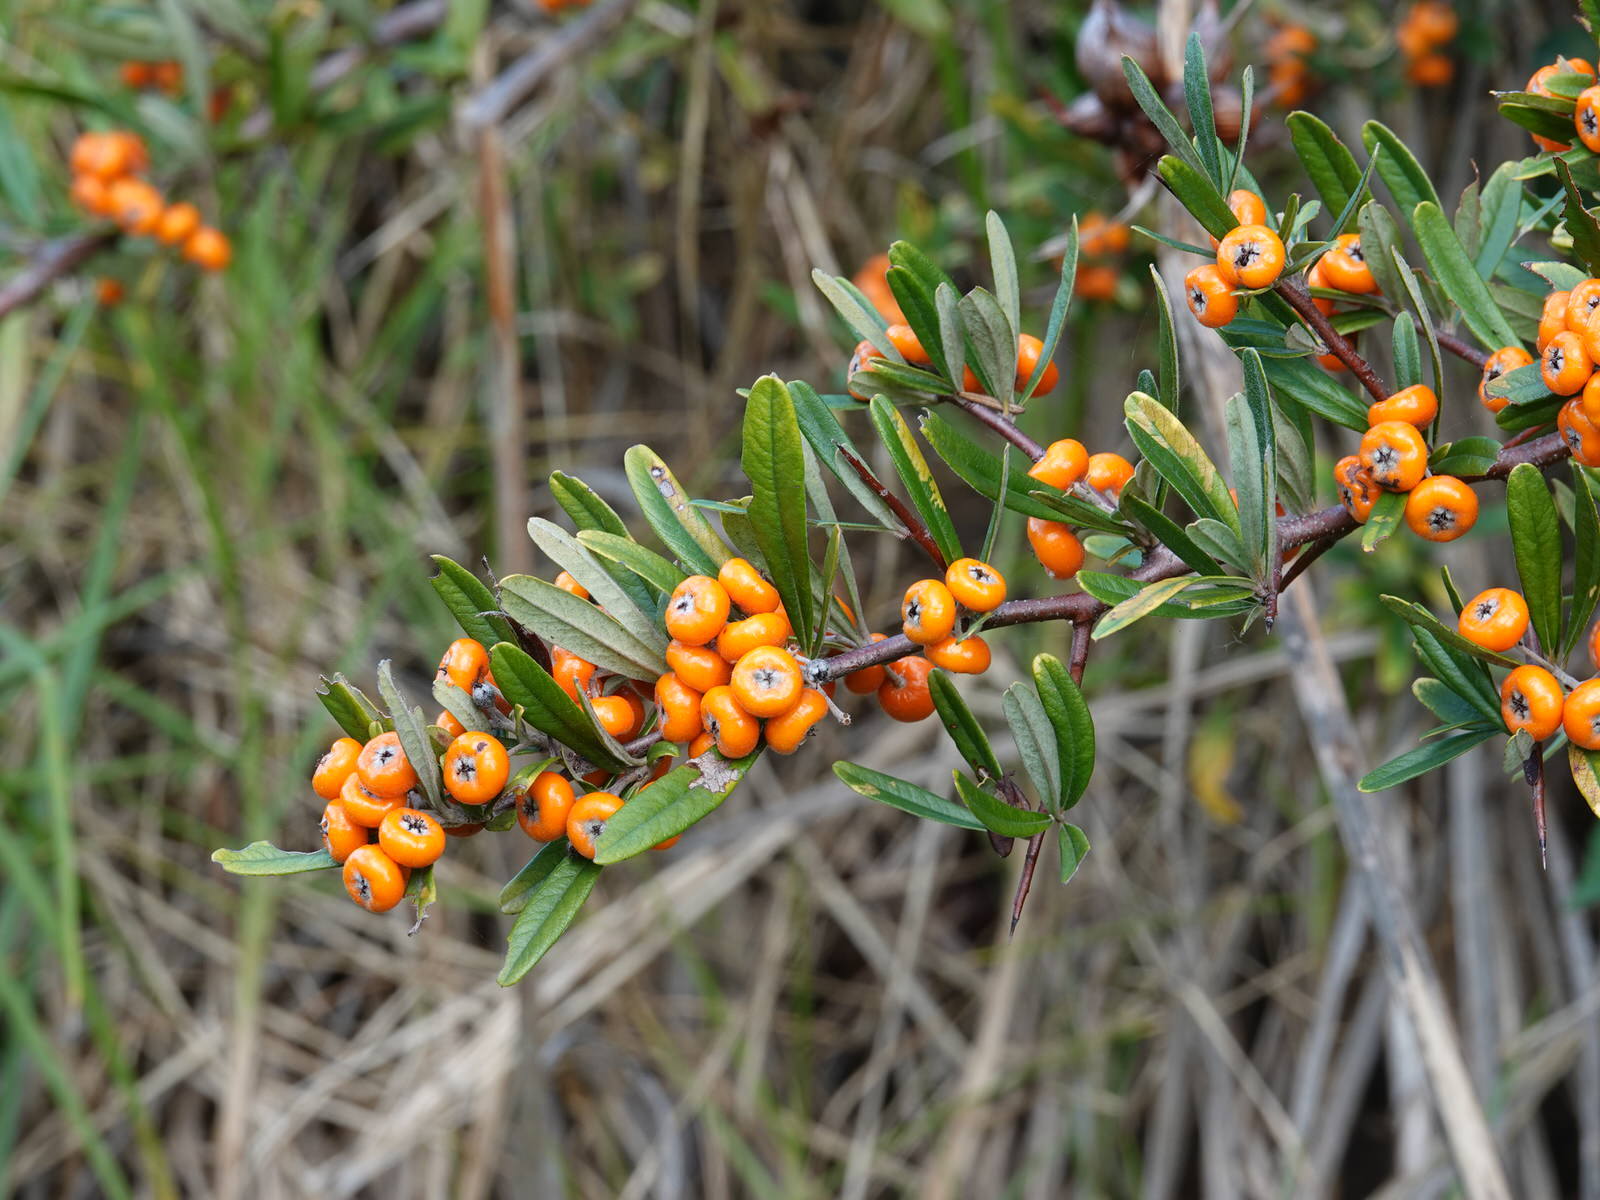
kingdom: Plantae
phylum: Tracheophyta
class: Magnoliopsida
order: Rosales
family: Rosaceae
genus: Pyracantha
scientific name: Pyracantha angustifolia
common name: Narrowleaf firethorn
